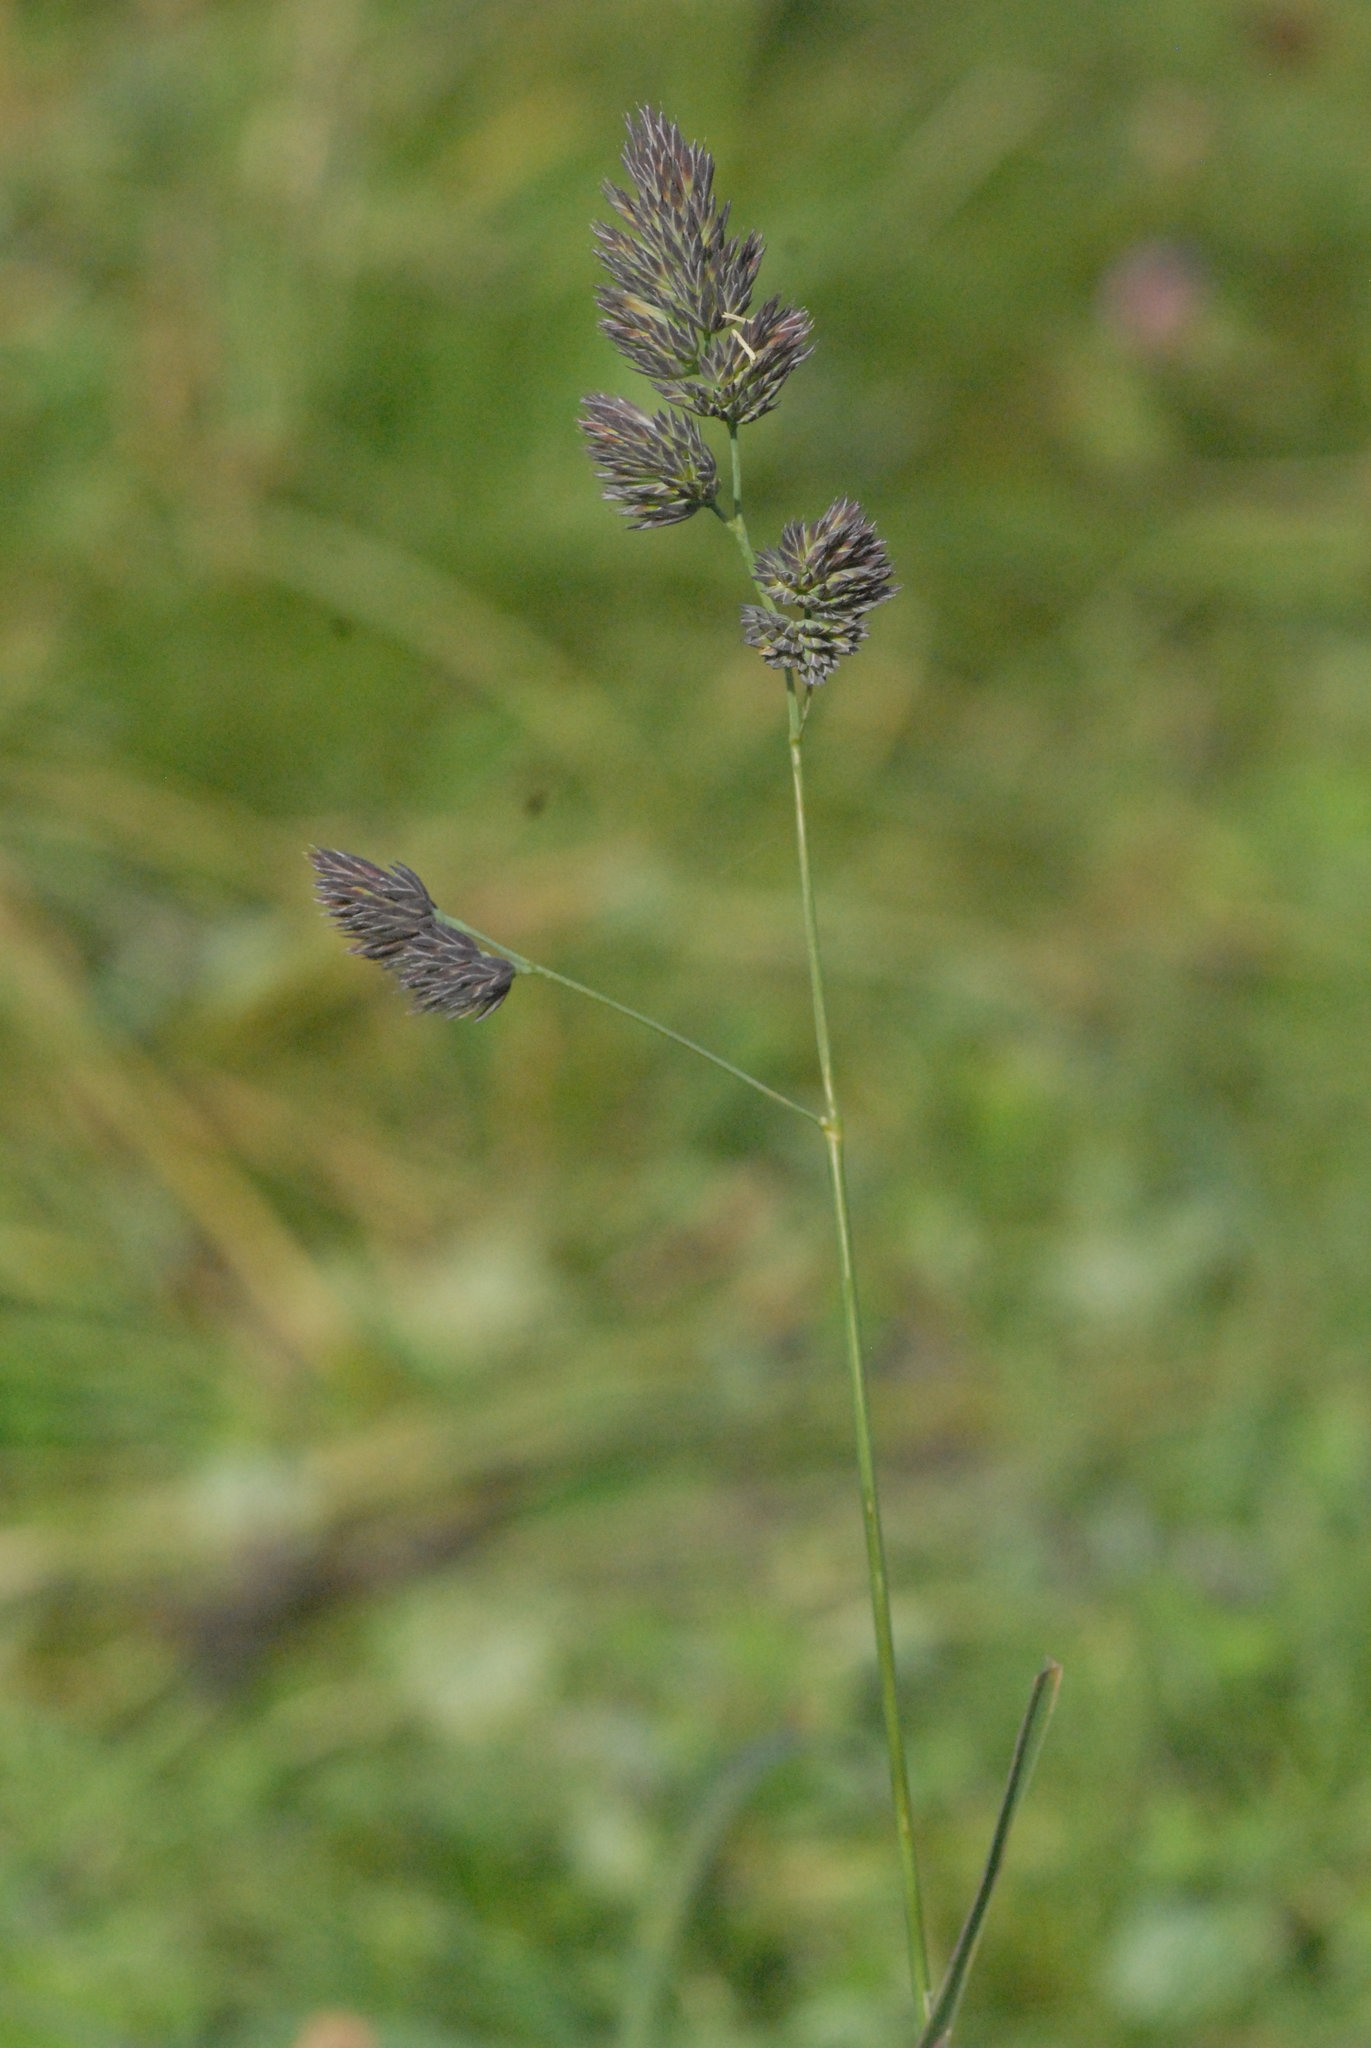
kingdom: Plantae
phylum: Tracheophyta
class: Liliopsida
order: Poales
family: Poaceae
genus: Dactylis
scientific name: Dactylis glomerata
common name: Orchardgrass
